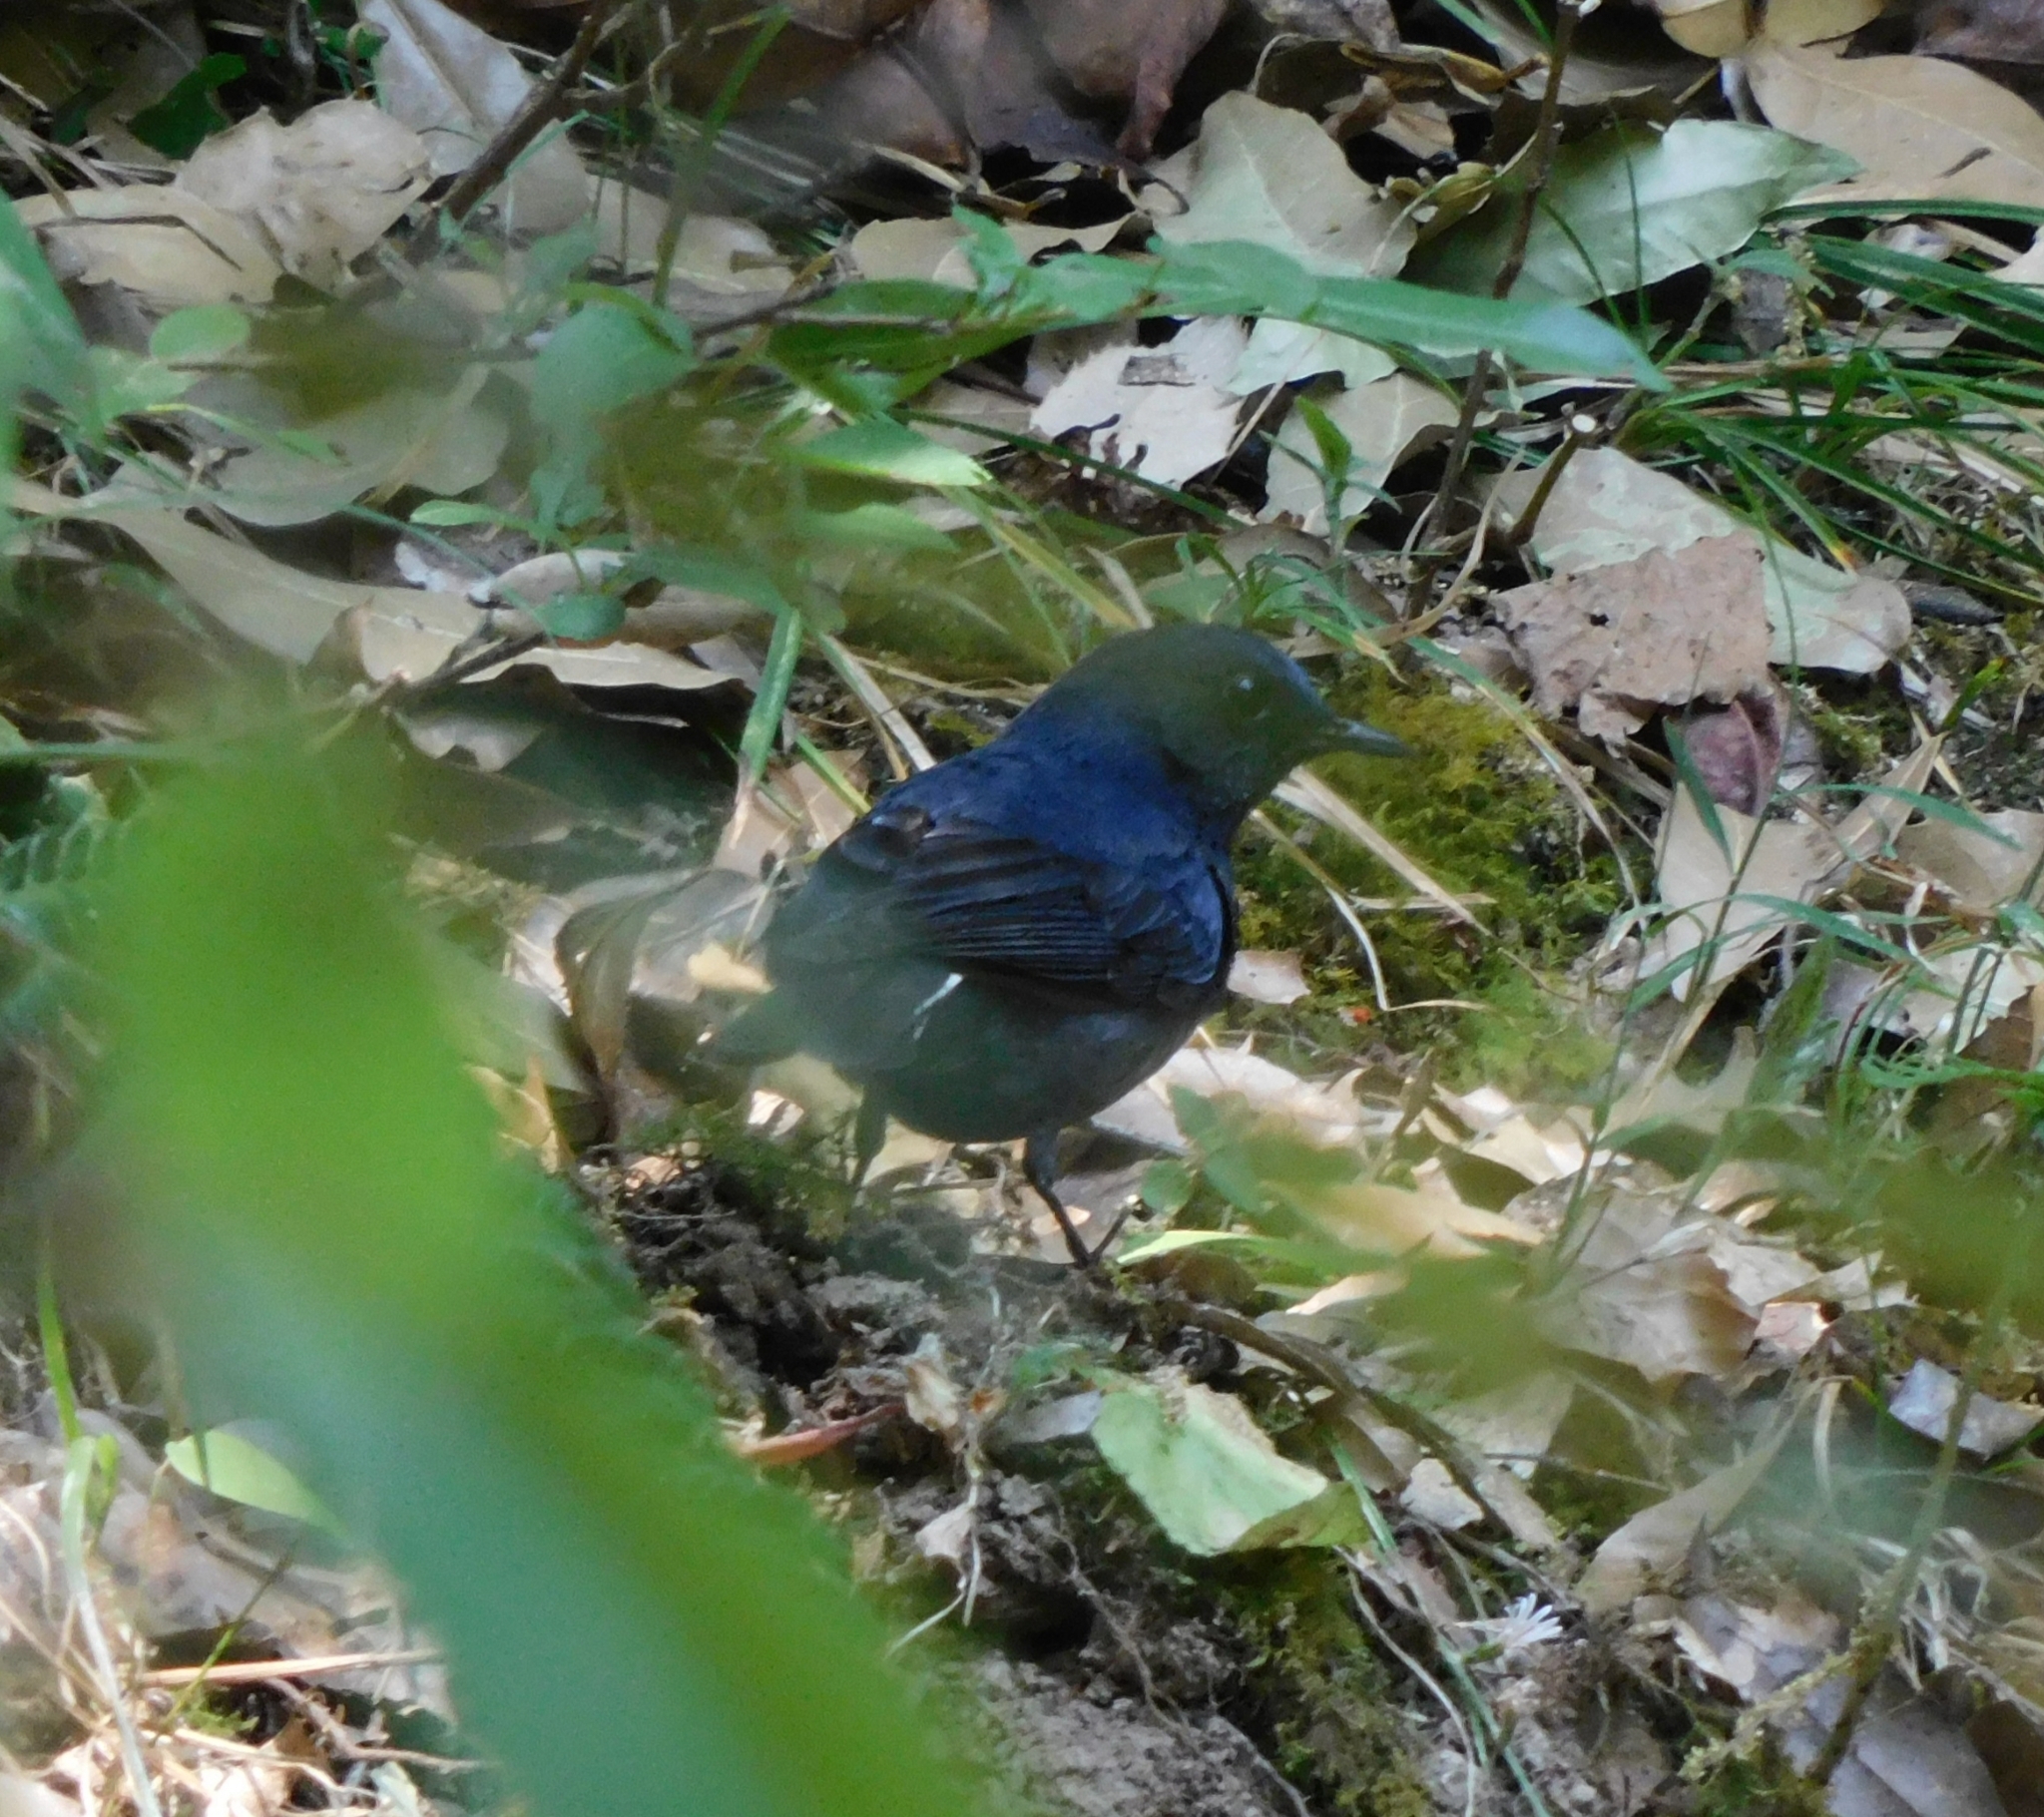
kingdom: Animalia
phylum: Chordata
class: Aves
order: Passeriformes
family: Muscicapidae
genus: Myiomela
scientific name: Myiomela leucura
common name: White-tailed robin
